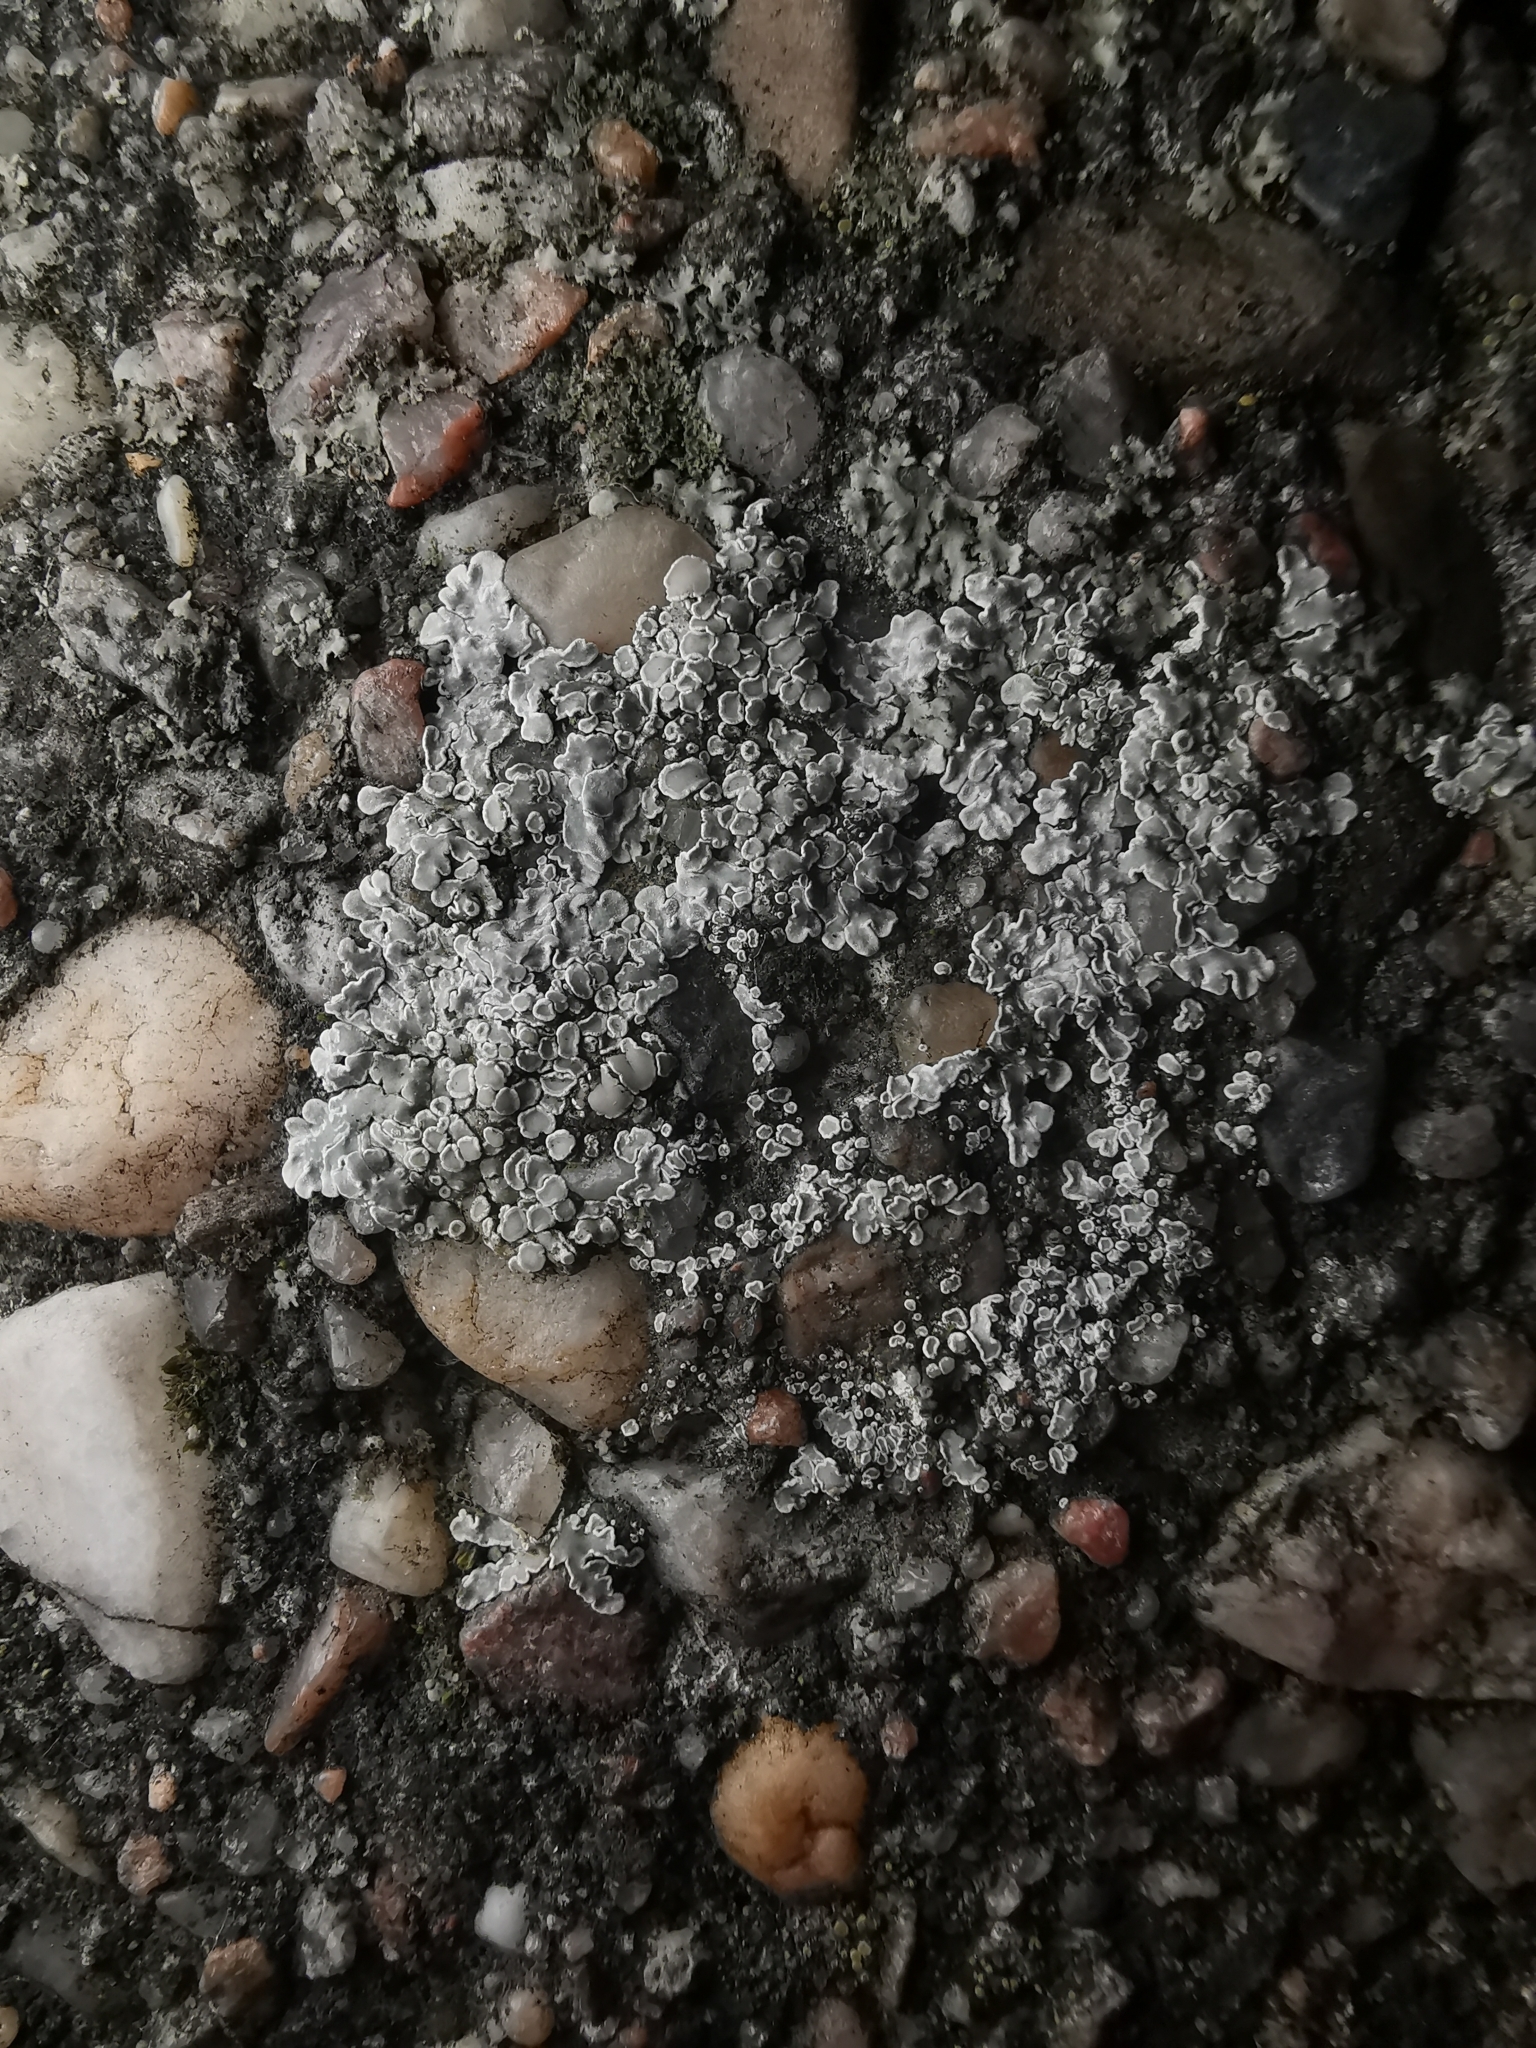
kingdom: Fungi
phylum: Ascomycota
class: Lecanoromycetes
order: Lecanorales
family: Lecanoraceae
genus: Protoparmeliopsis
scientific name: Protoparmeliopsis muralis
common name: Stonewall rim lichen
